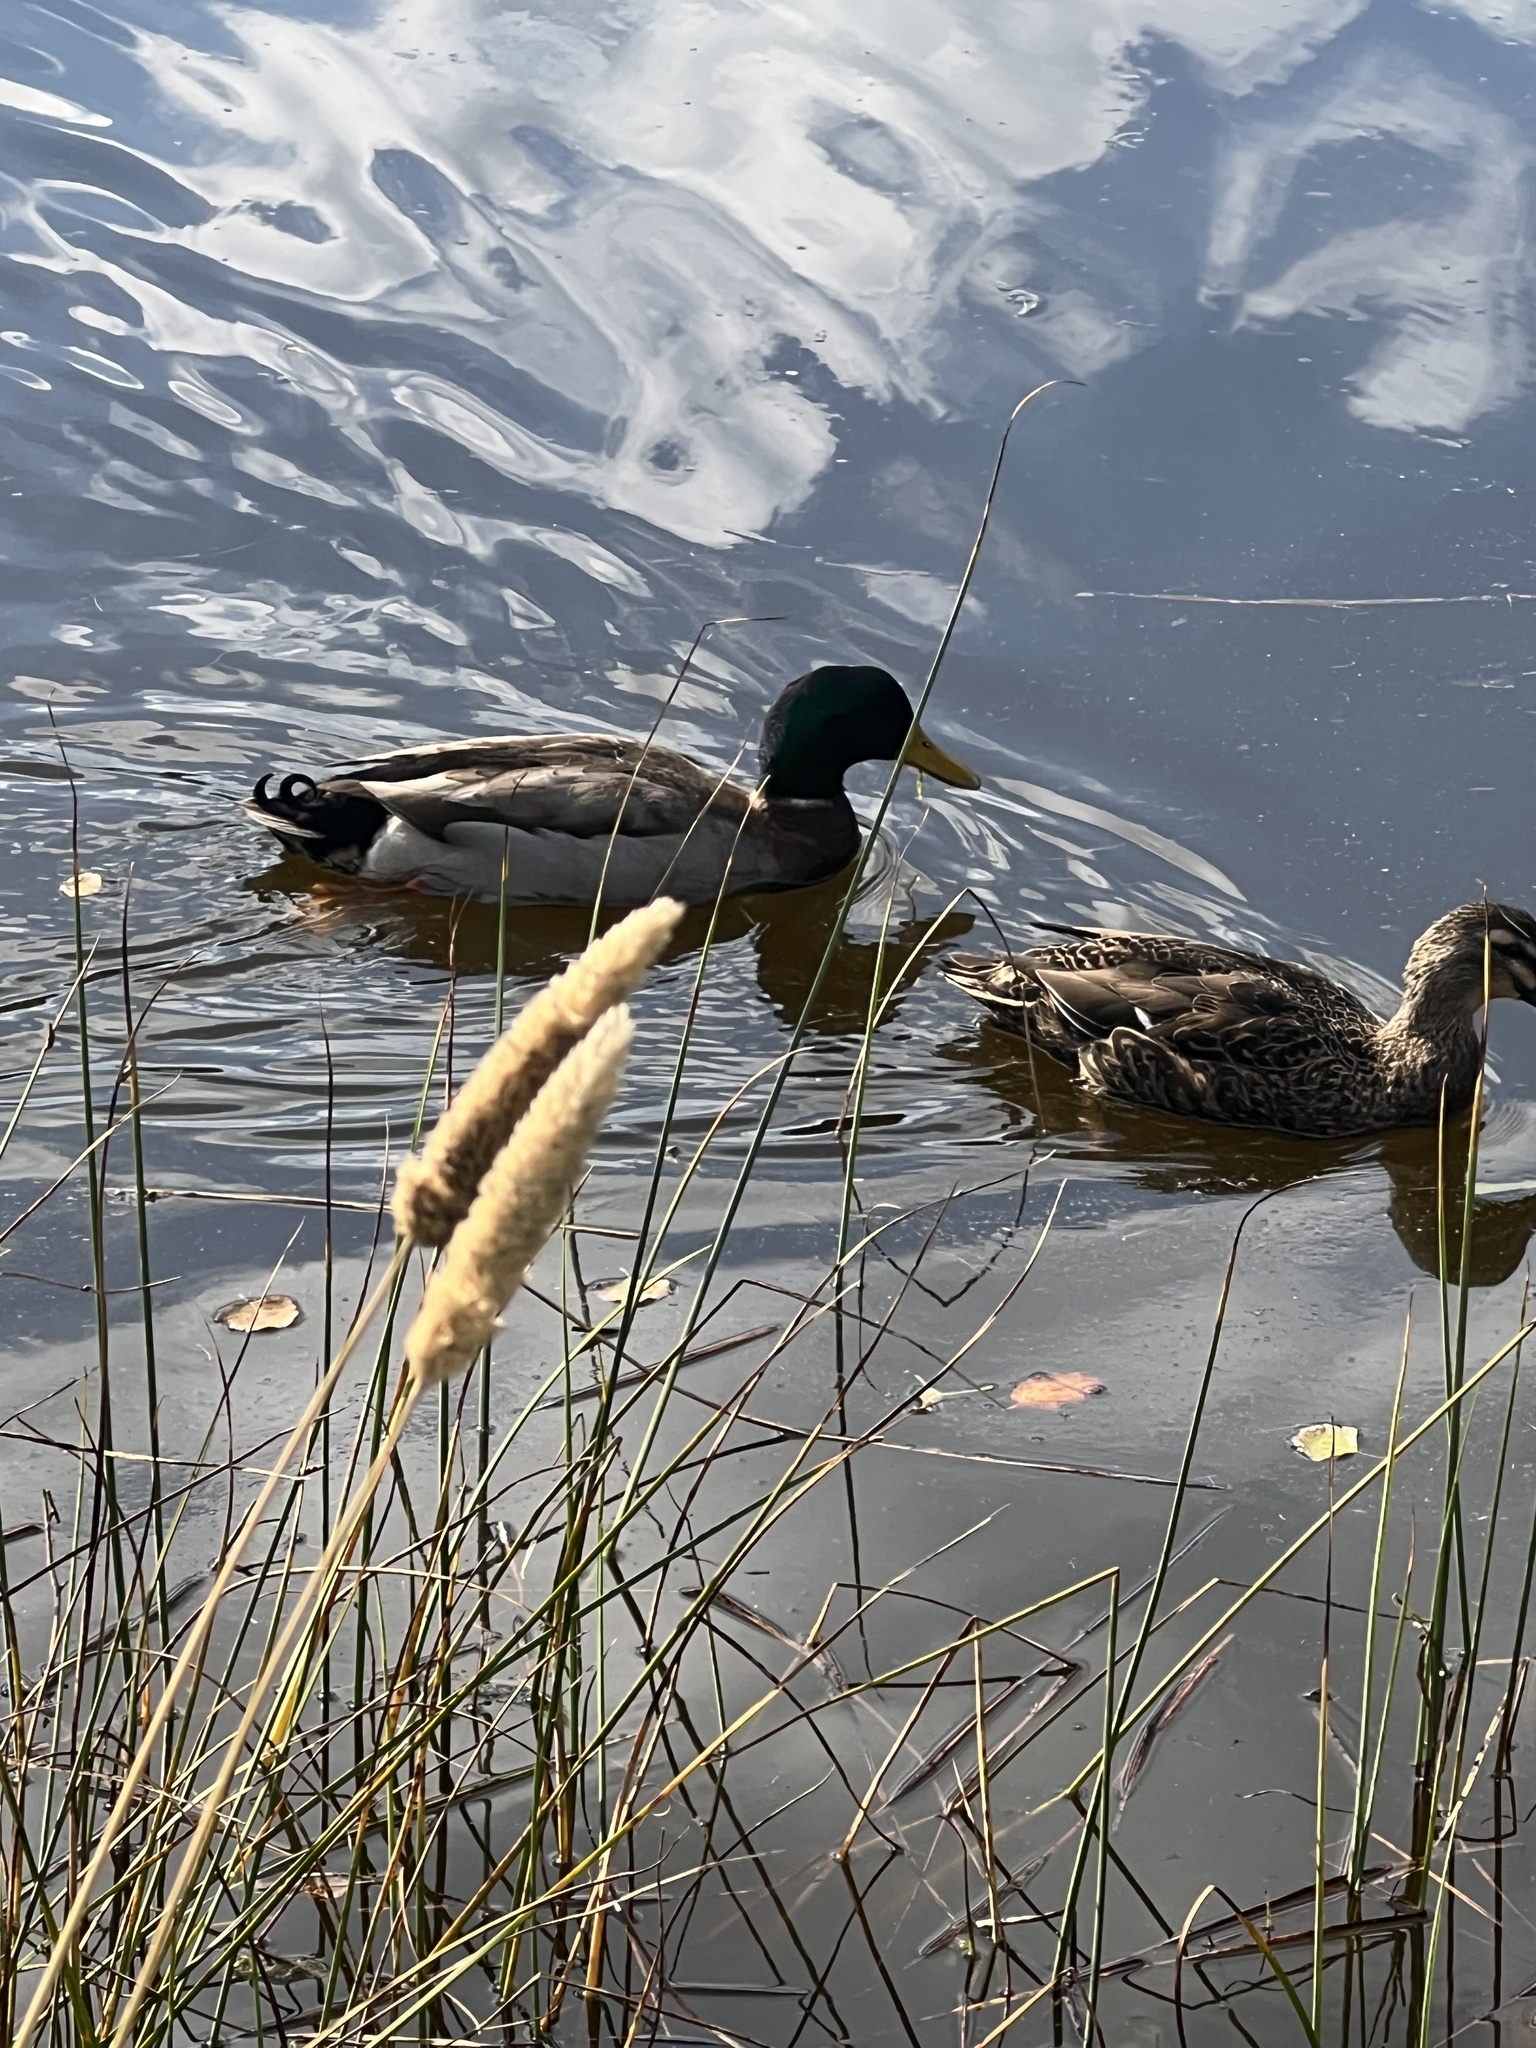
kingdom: Animalia
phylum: Chordata
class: Aves
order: Anseriformes
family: Anatidae
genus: Anas
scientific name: Anas platyrhynchos
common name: Mallard
